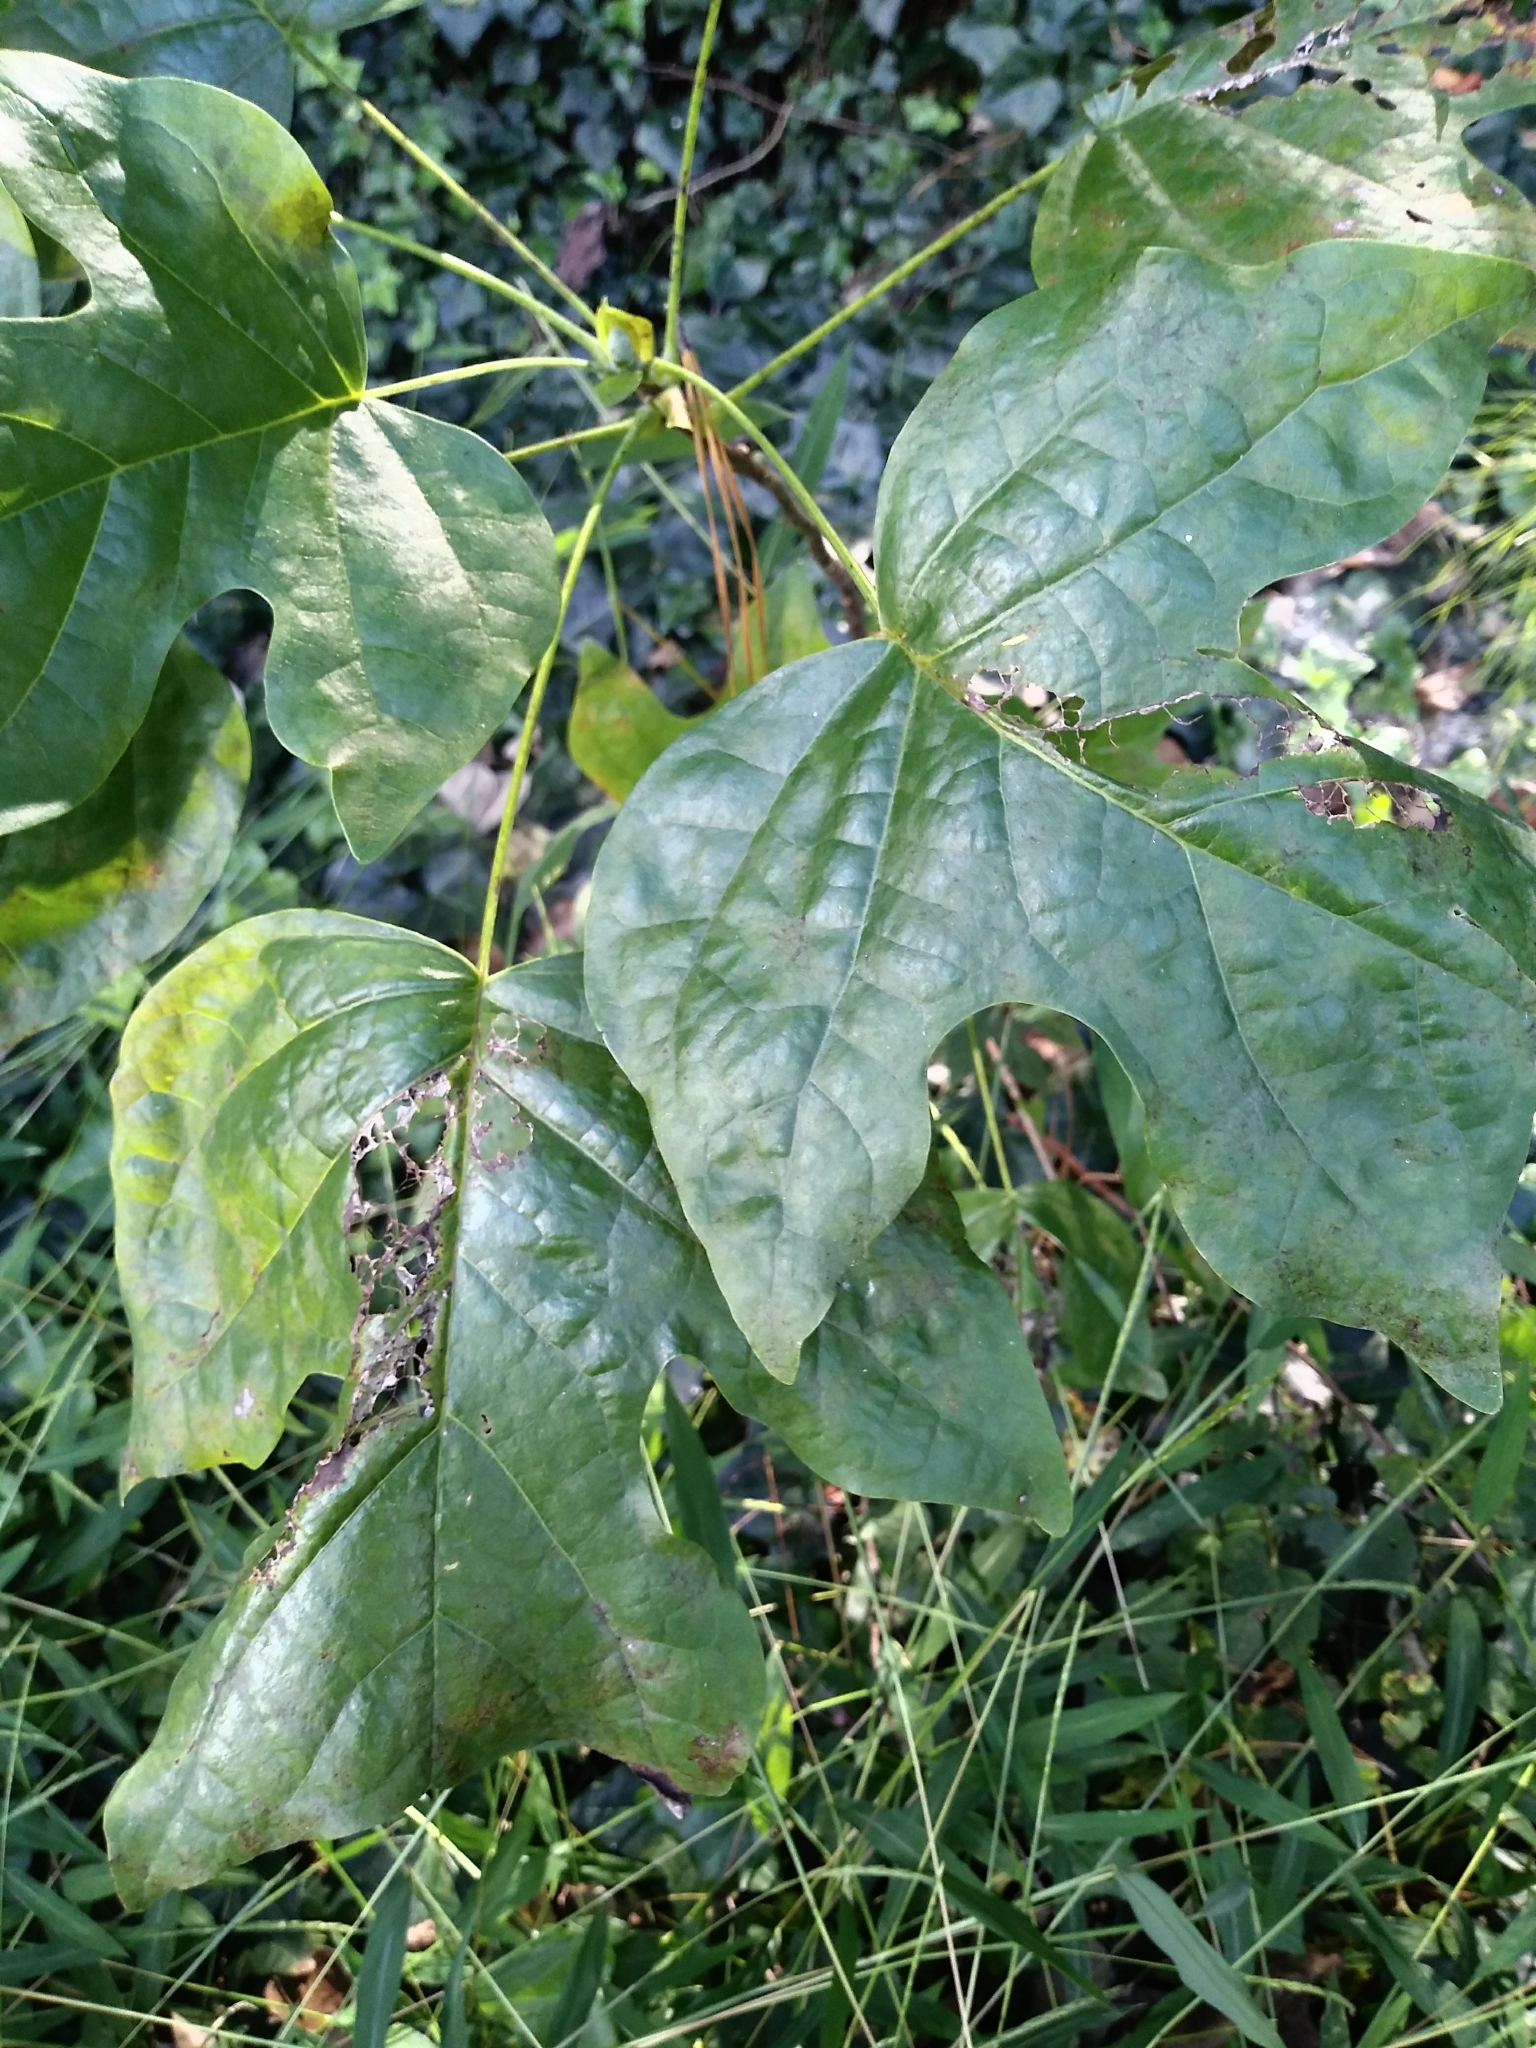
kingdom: Plantae
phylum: Tracheophyta
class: Magnoliopsida
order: Magnoliales
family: Magnoliaceae
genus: Liriodendron
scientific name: Liriodendron tulipifera
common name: Tulip tree
